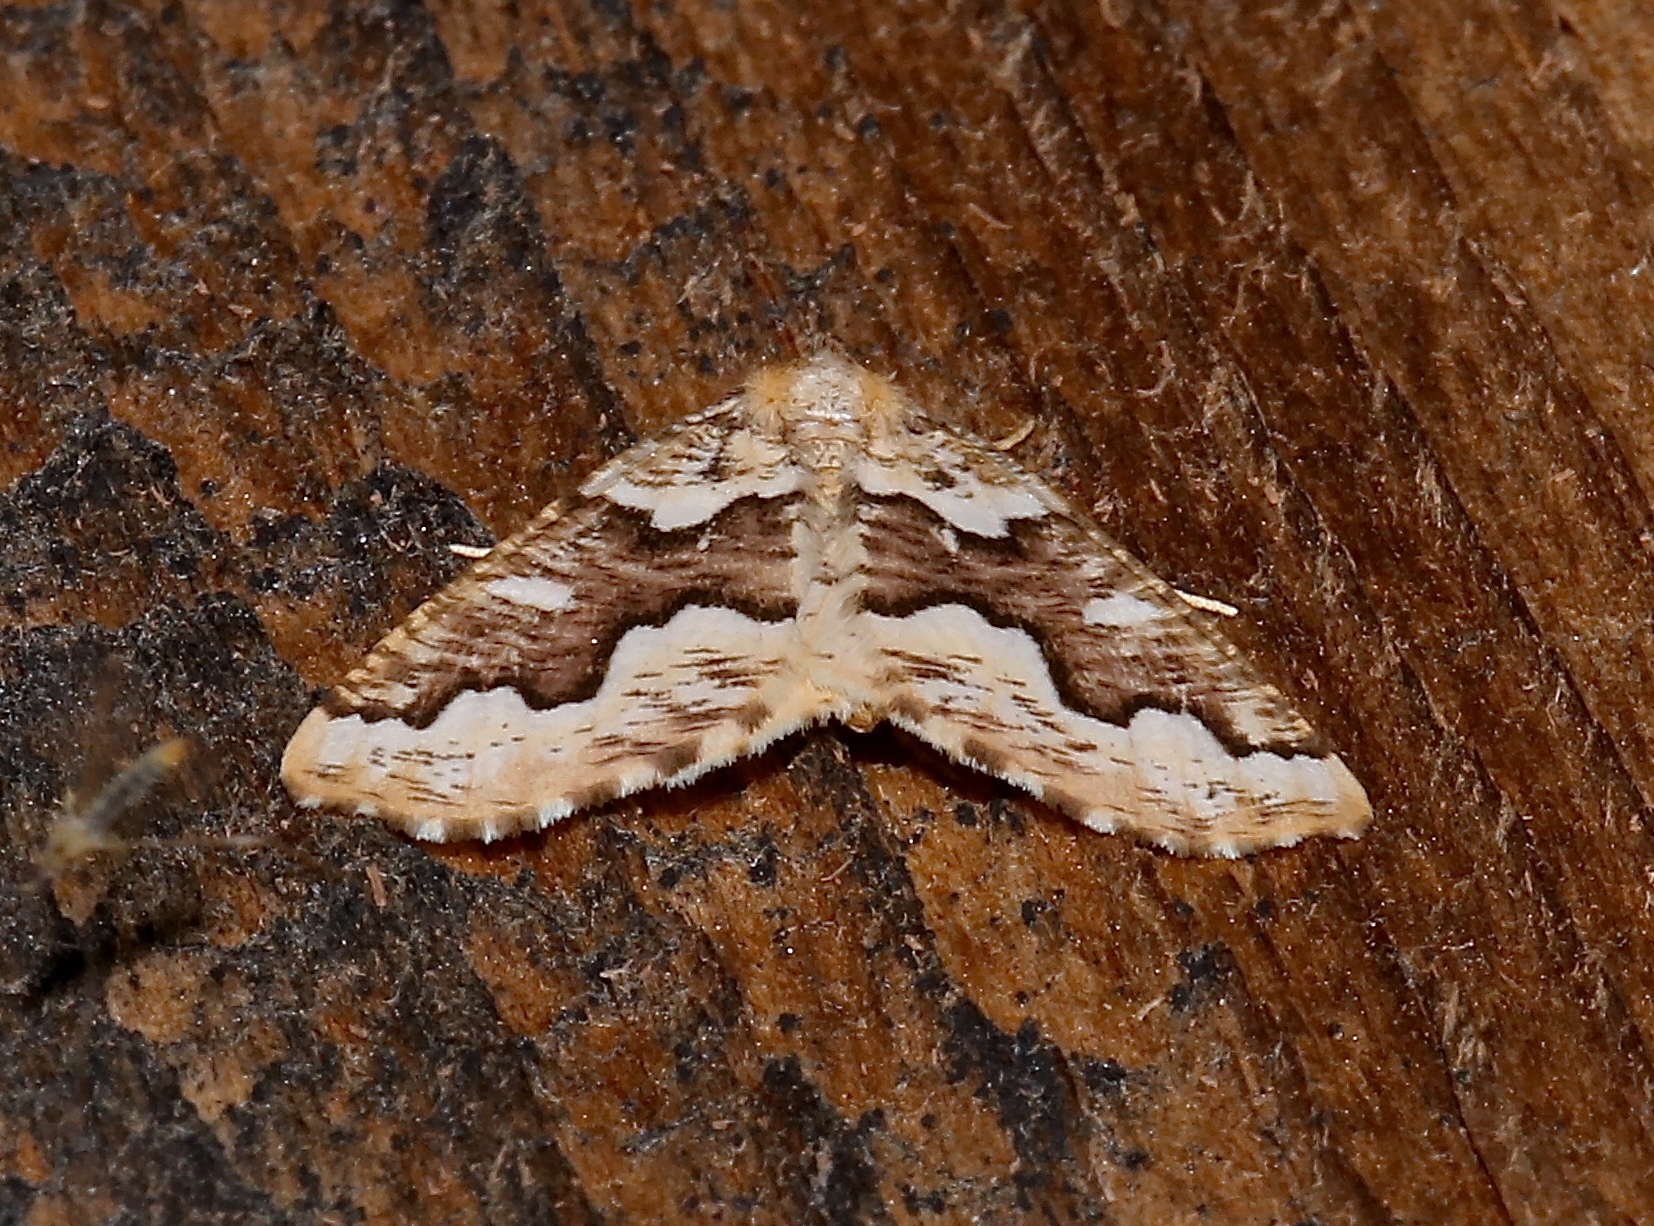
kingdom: Animalia
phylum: Arthropoda
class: Insecta
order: Lepidoptera
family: Geometridae
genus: Caripeta
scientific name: Caripeta divisata
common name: Gray spruce looper
